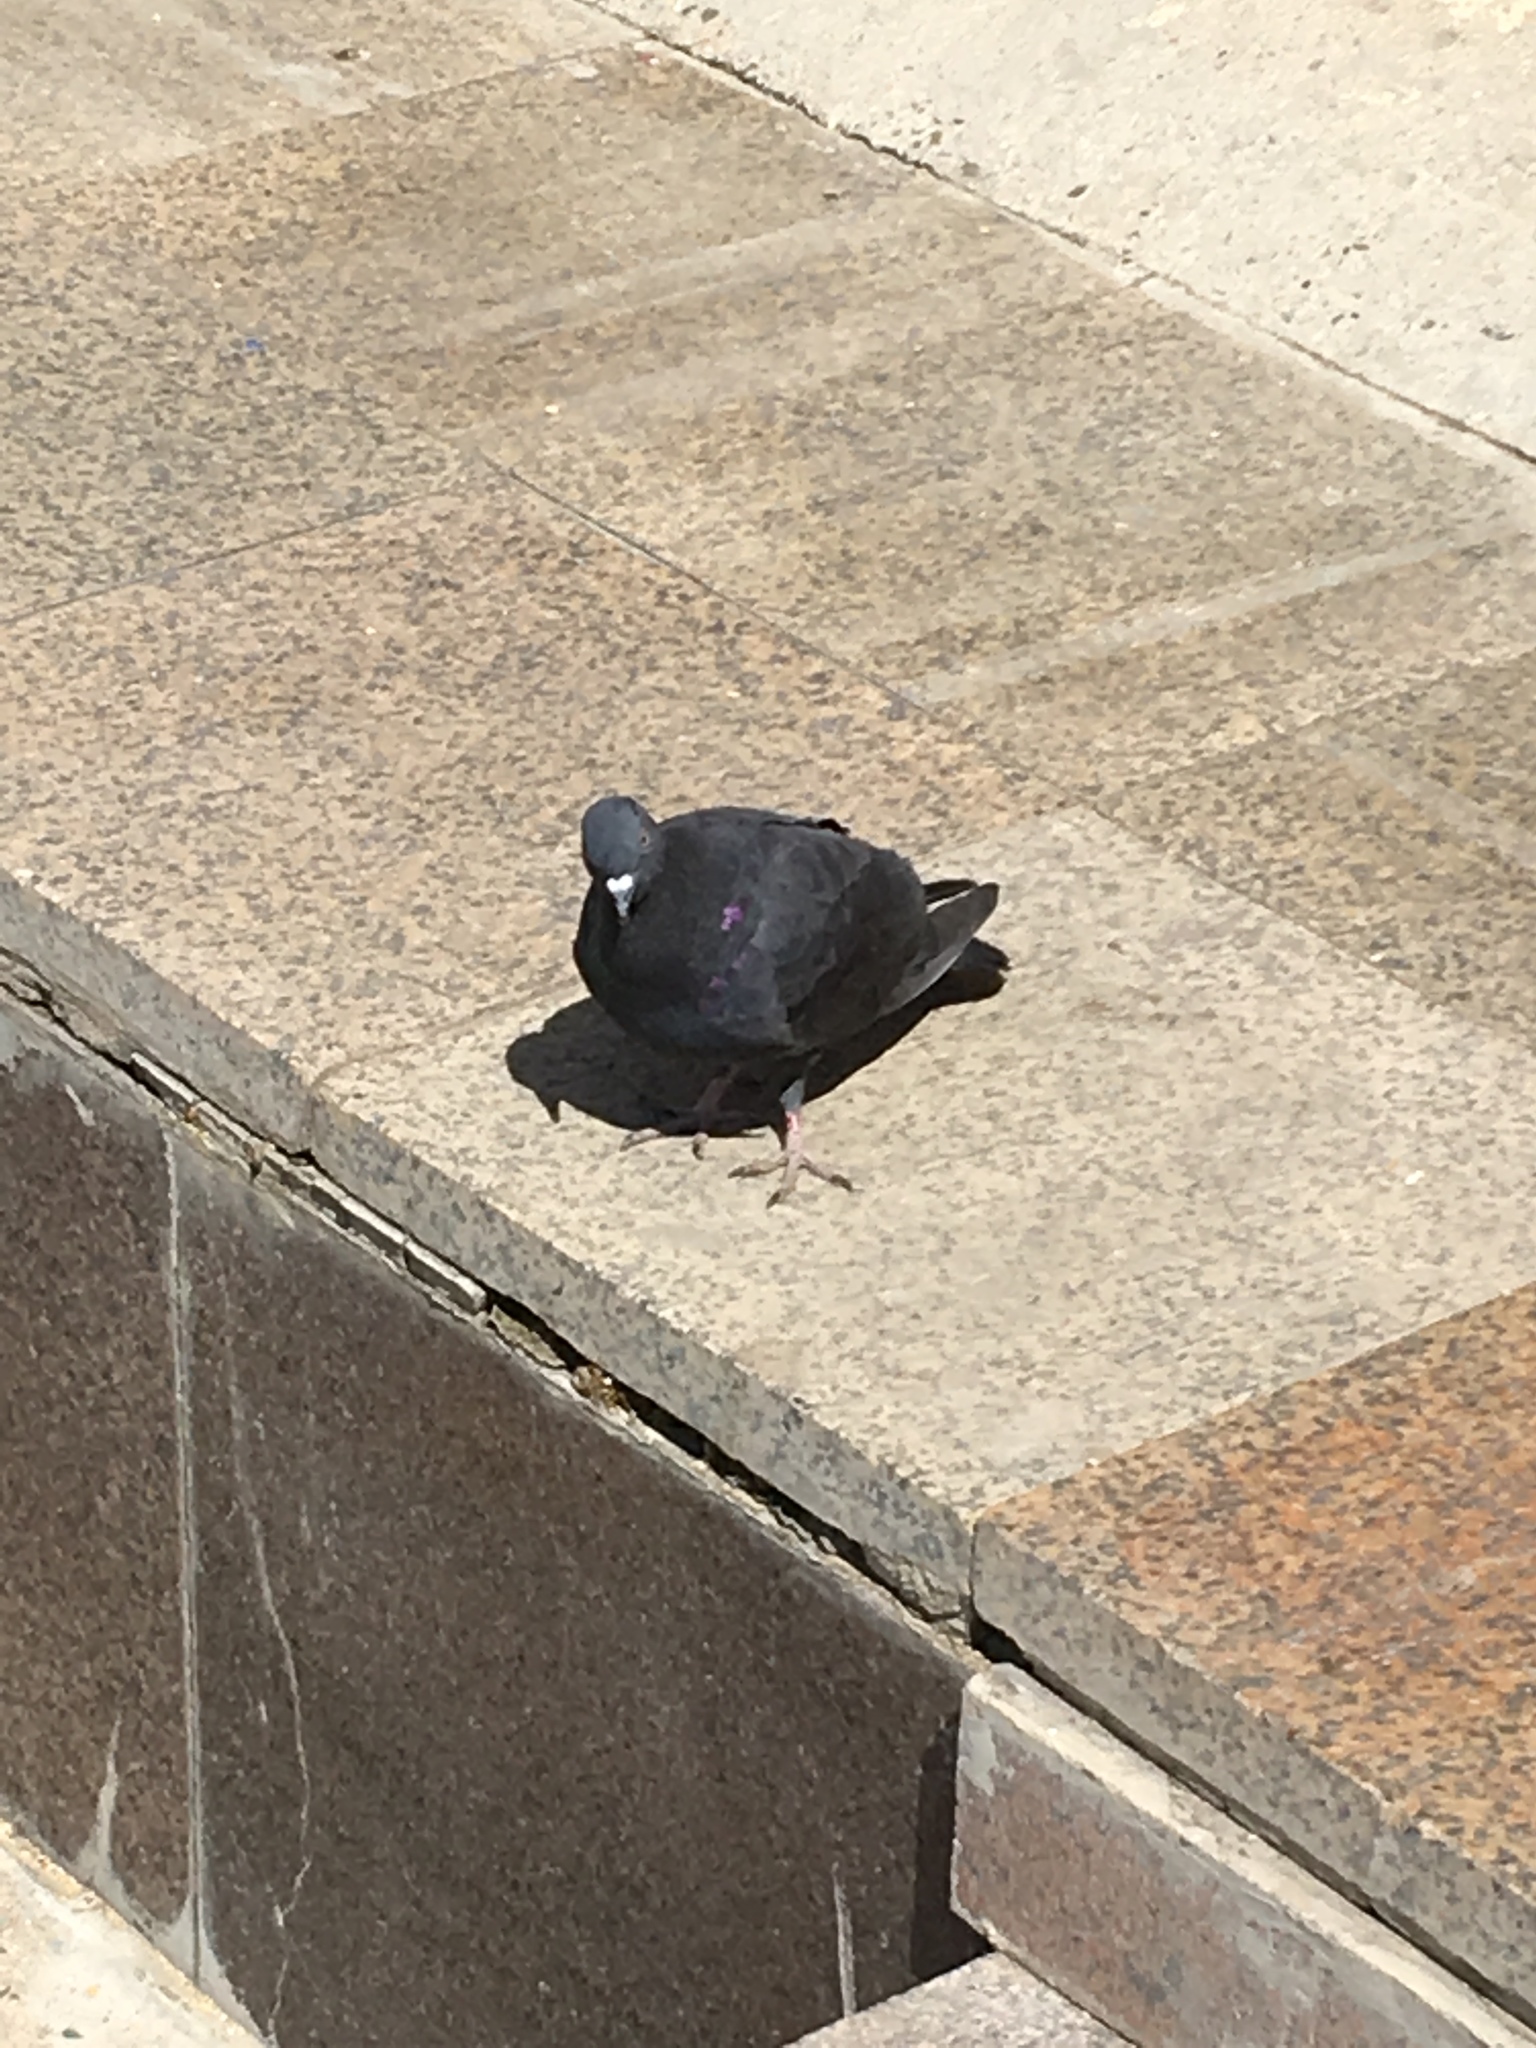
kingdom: Animalia
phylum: Chordata
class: Aves
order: Columbiformes
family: Columbidae
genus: Columba
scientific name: Columba livia
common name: Rock pigeon
